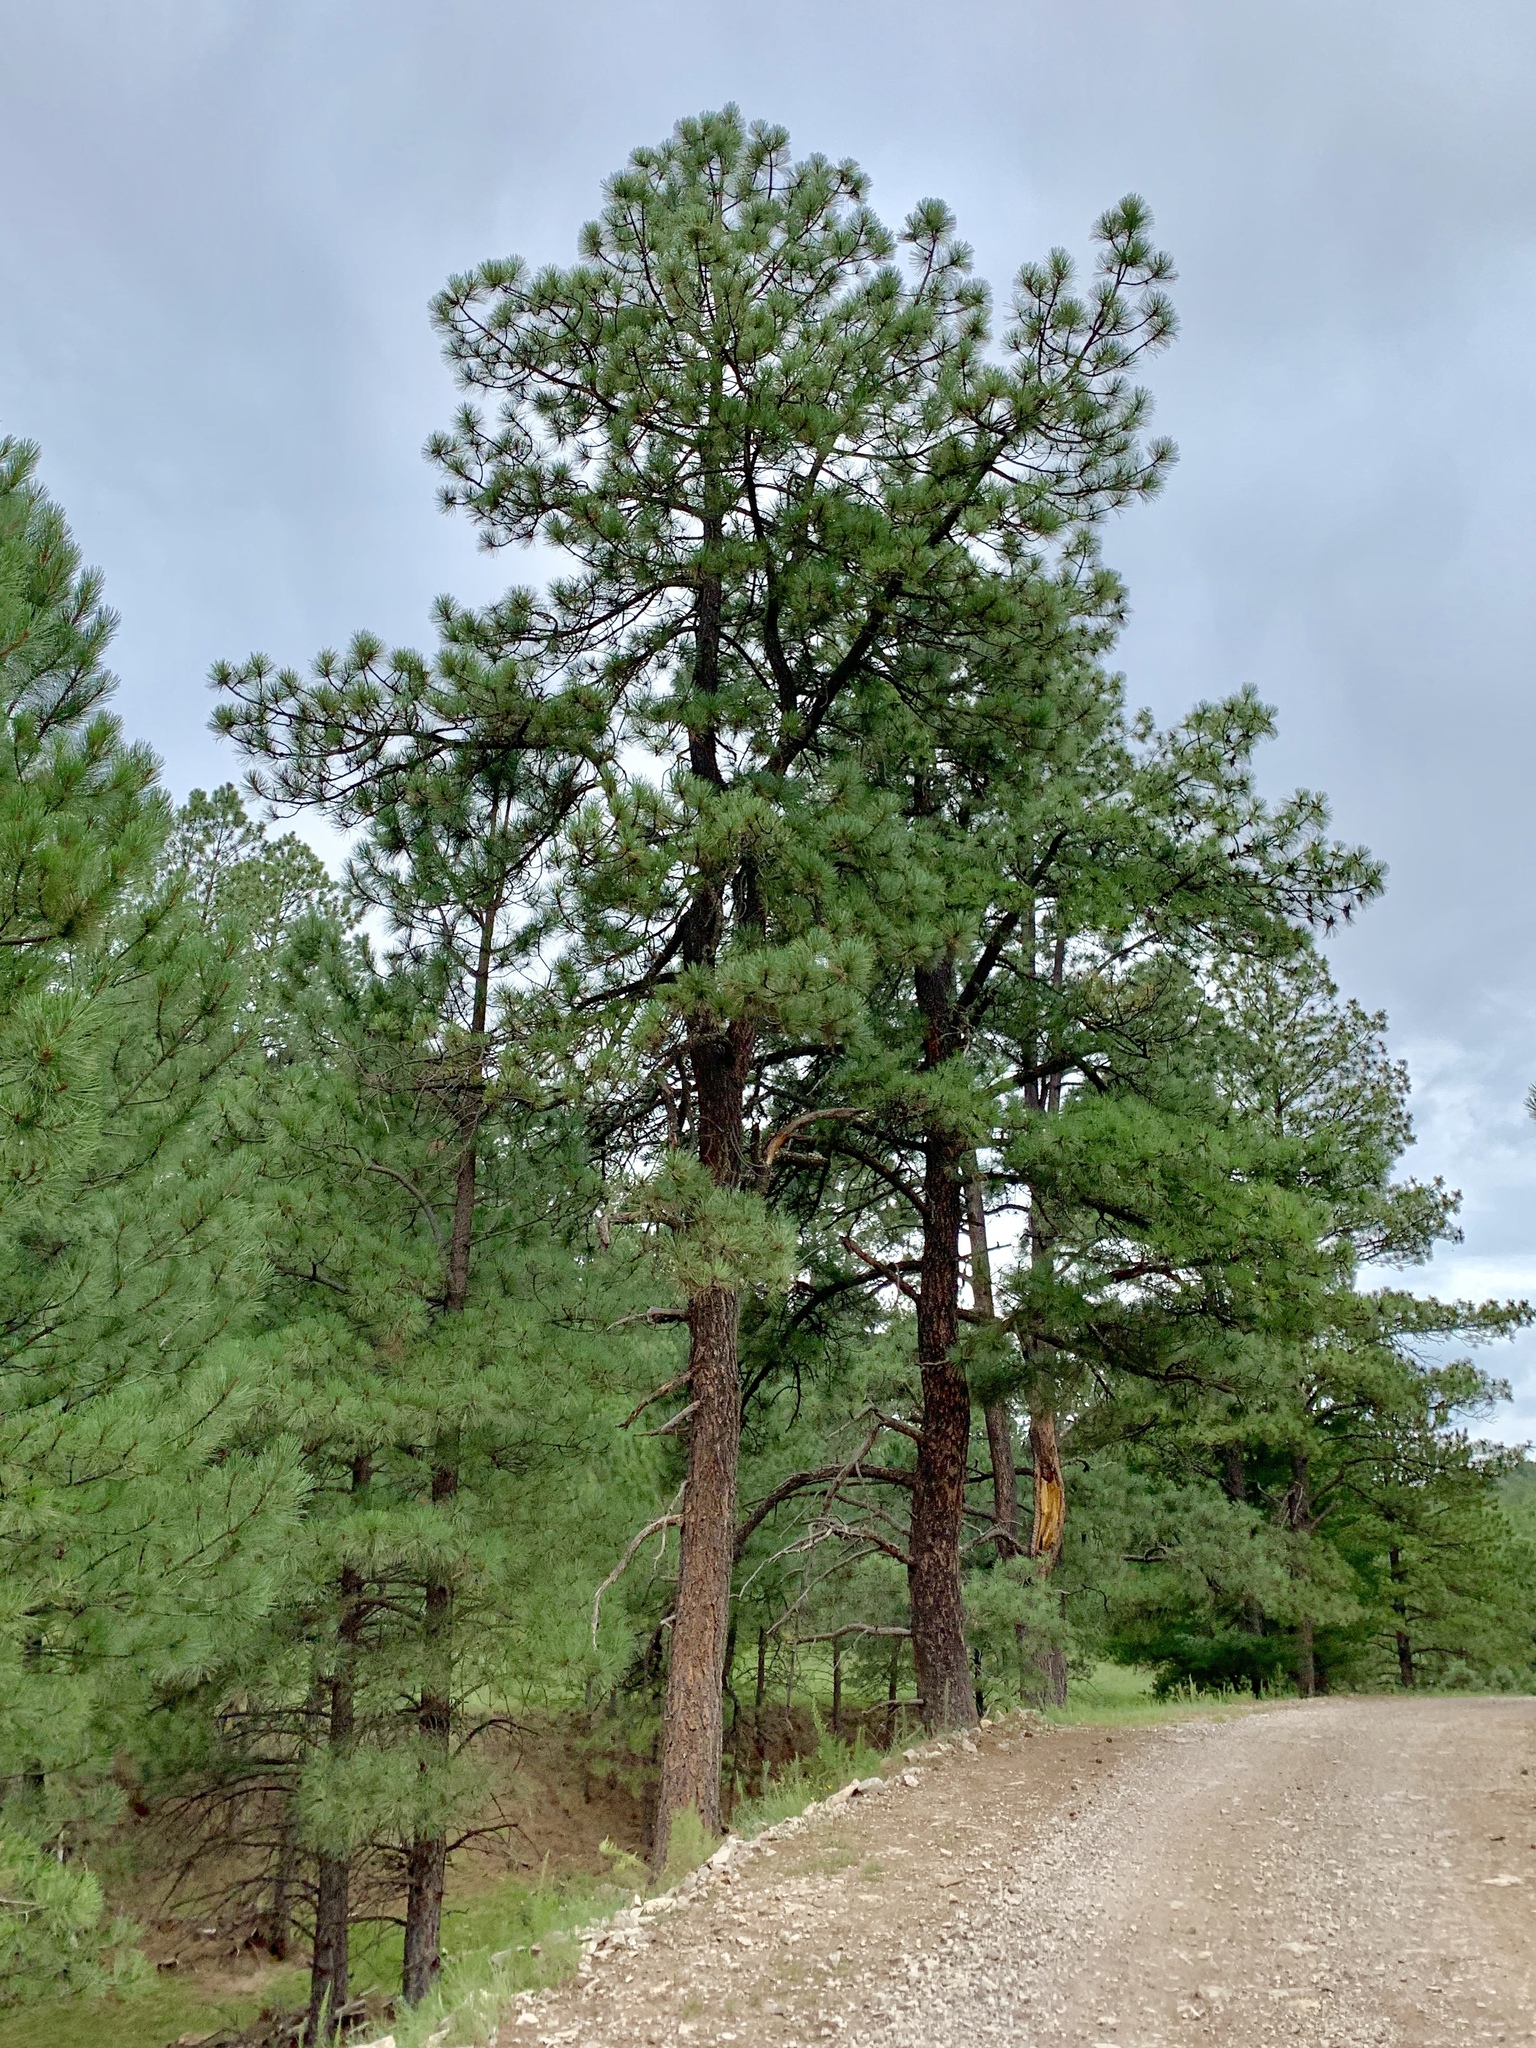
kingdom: Plantae
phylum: Tracheophyta
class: Pinopsida
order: Pinales
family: Pinaceae
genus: Pinus
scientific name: Pinus ponderosa
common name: Western yellow-pine
